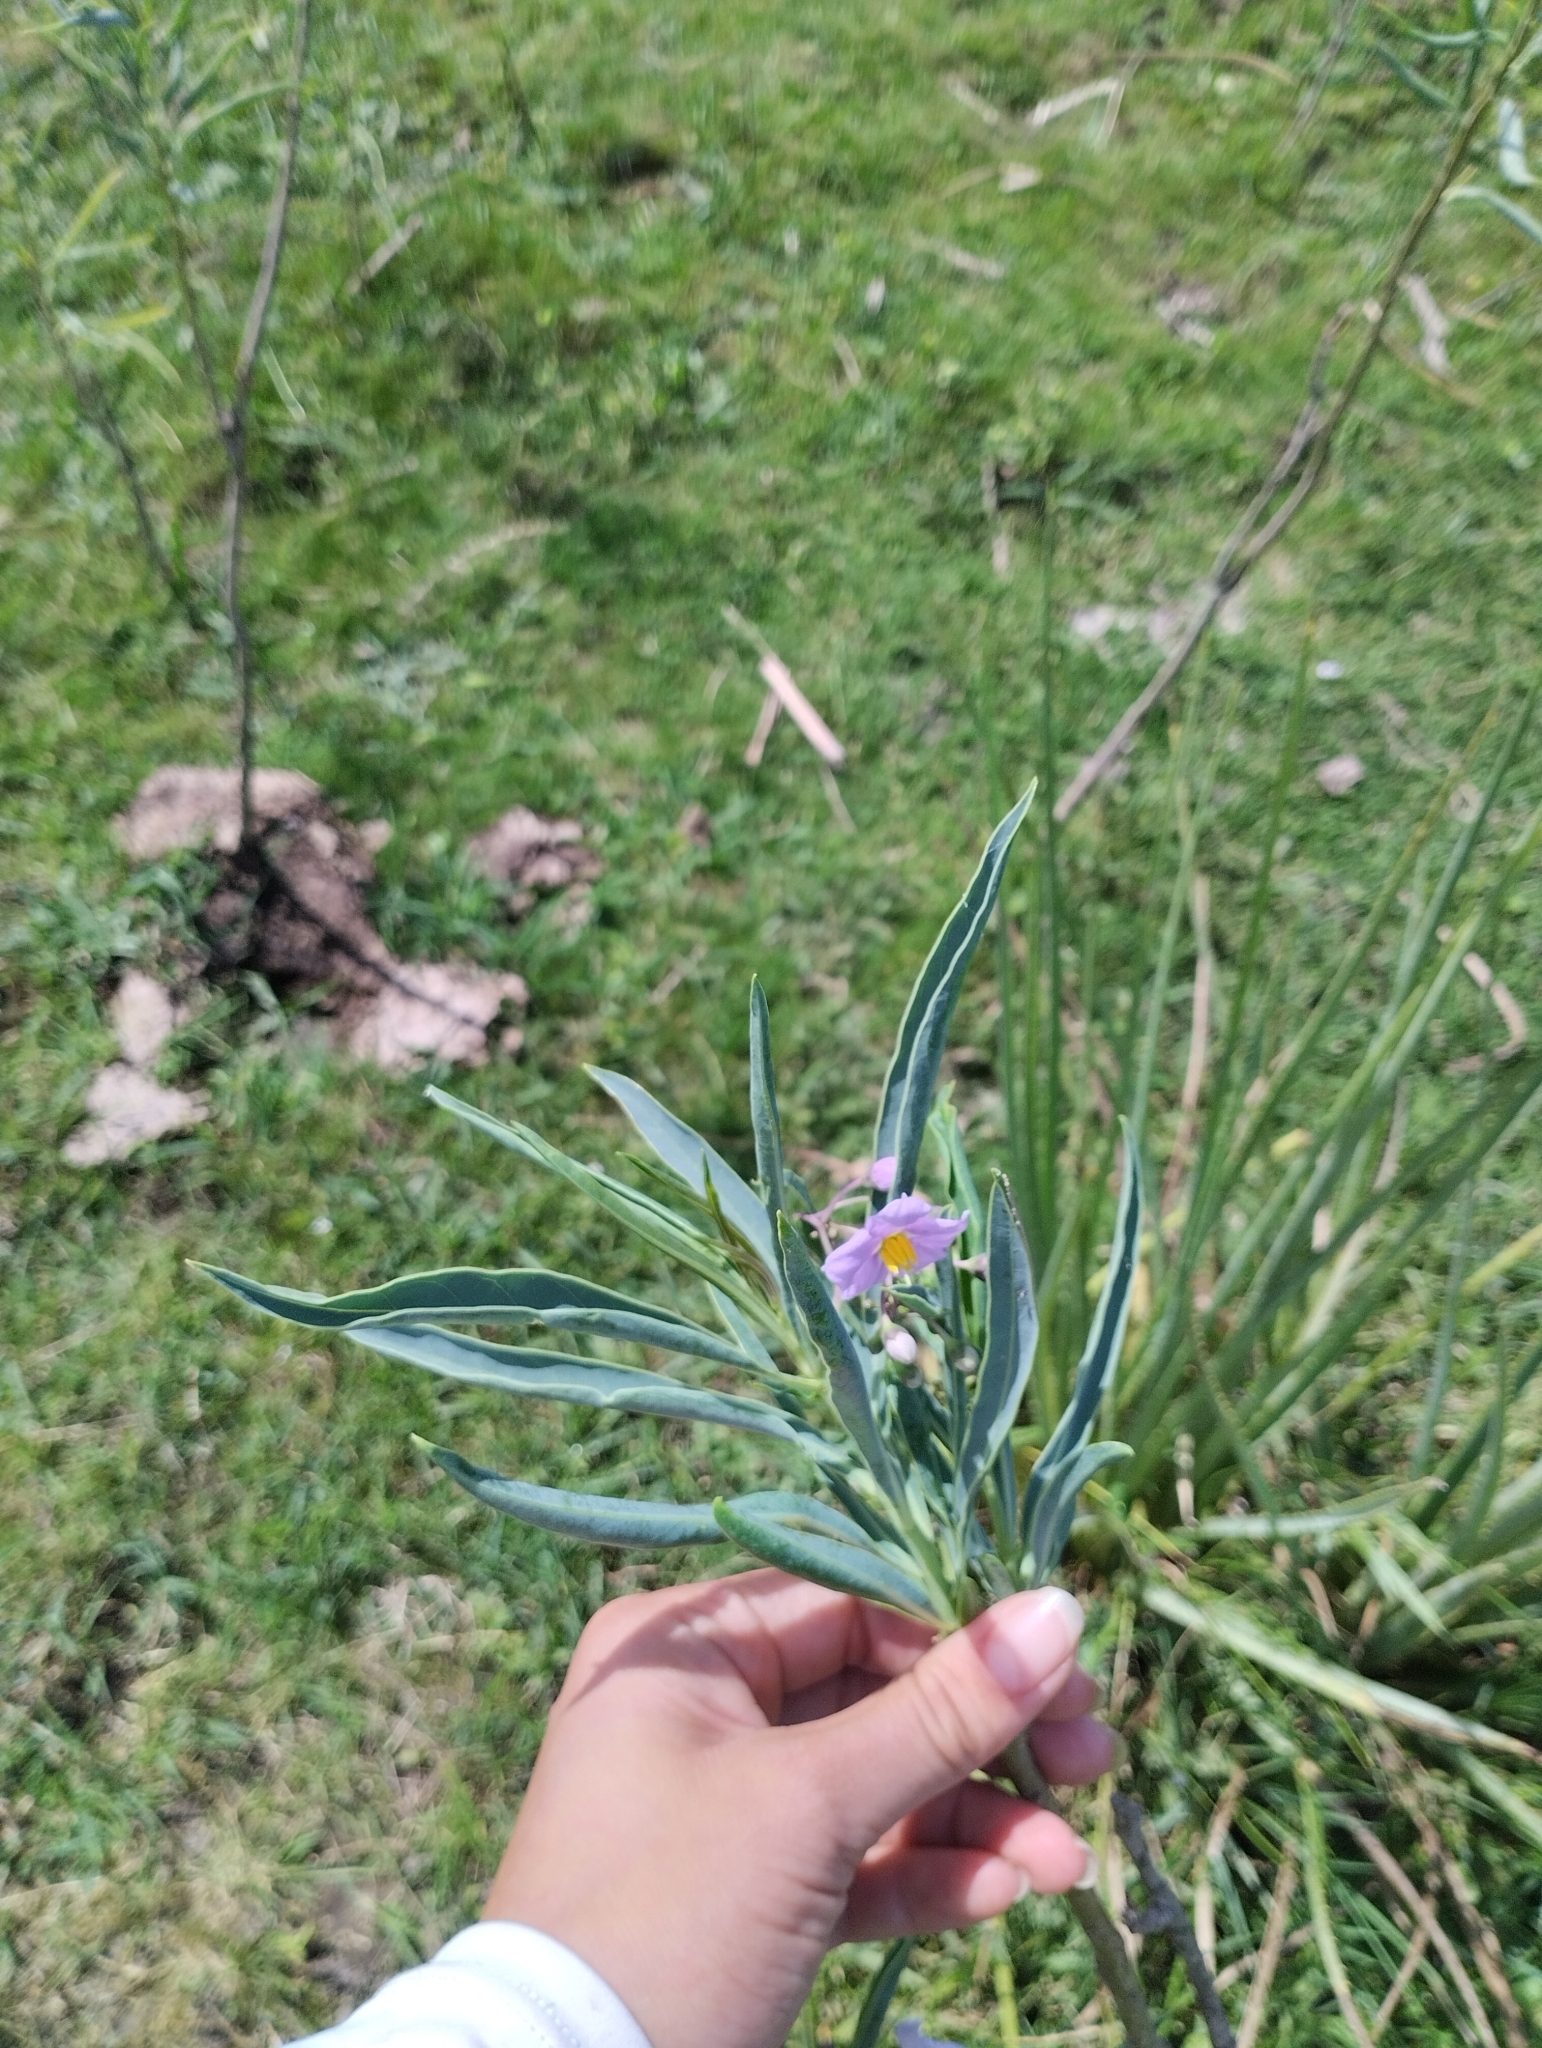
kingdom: Plantae
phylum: Tracheophyta
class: Magnoliopsida
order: Solanales
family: Solanaceae
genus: Solanum
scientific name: Solanum glaucophyllum
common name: Waxyleaf nightshade
